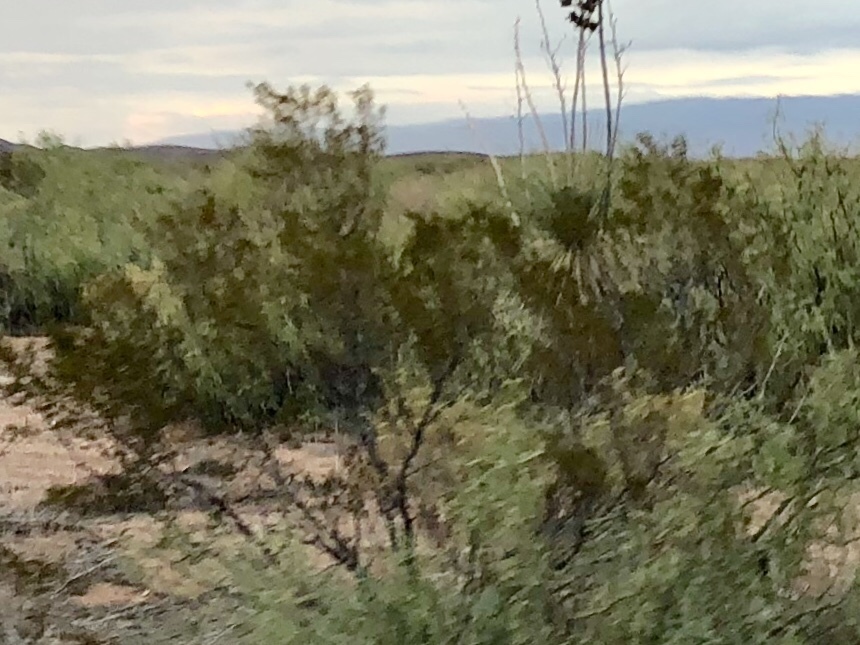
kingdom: Plantae
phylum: Tracheophyta
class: Magnoliopsida
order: Zygophyllales
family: Zygophyllaceae
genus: Larrea
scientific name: Larrea tridentata
